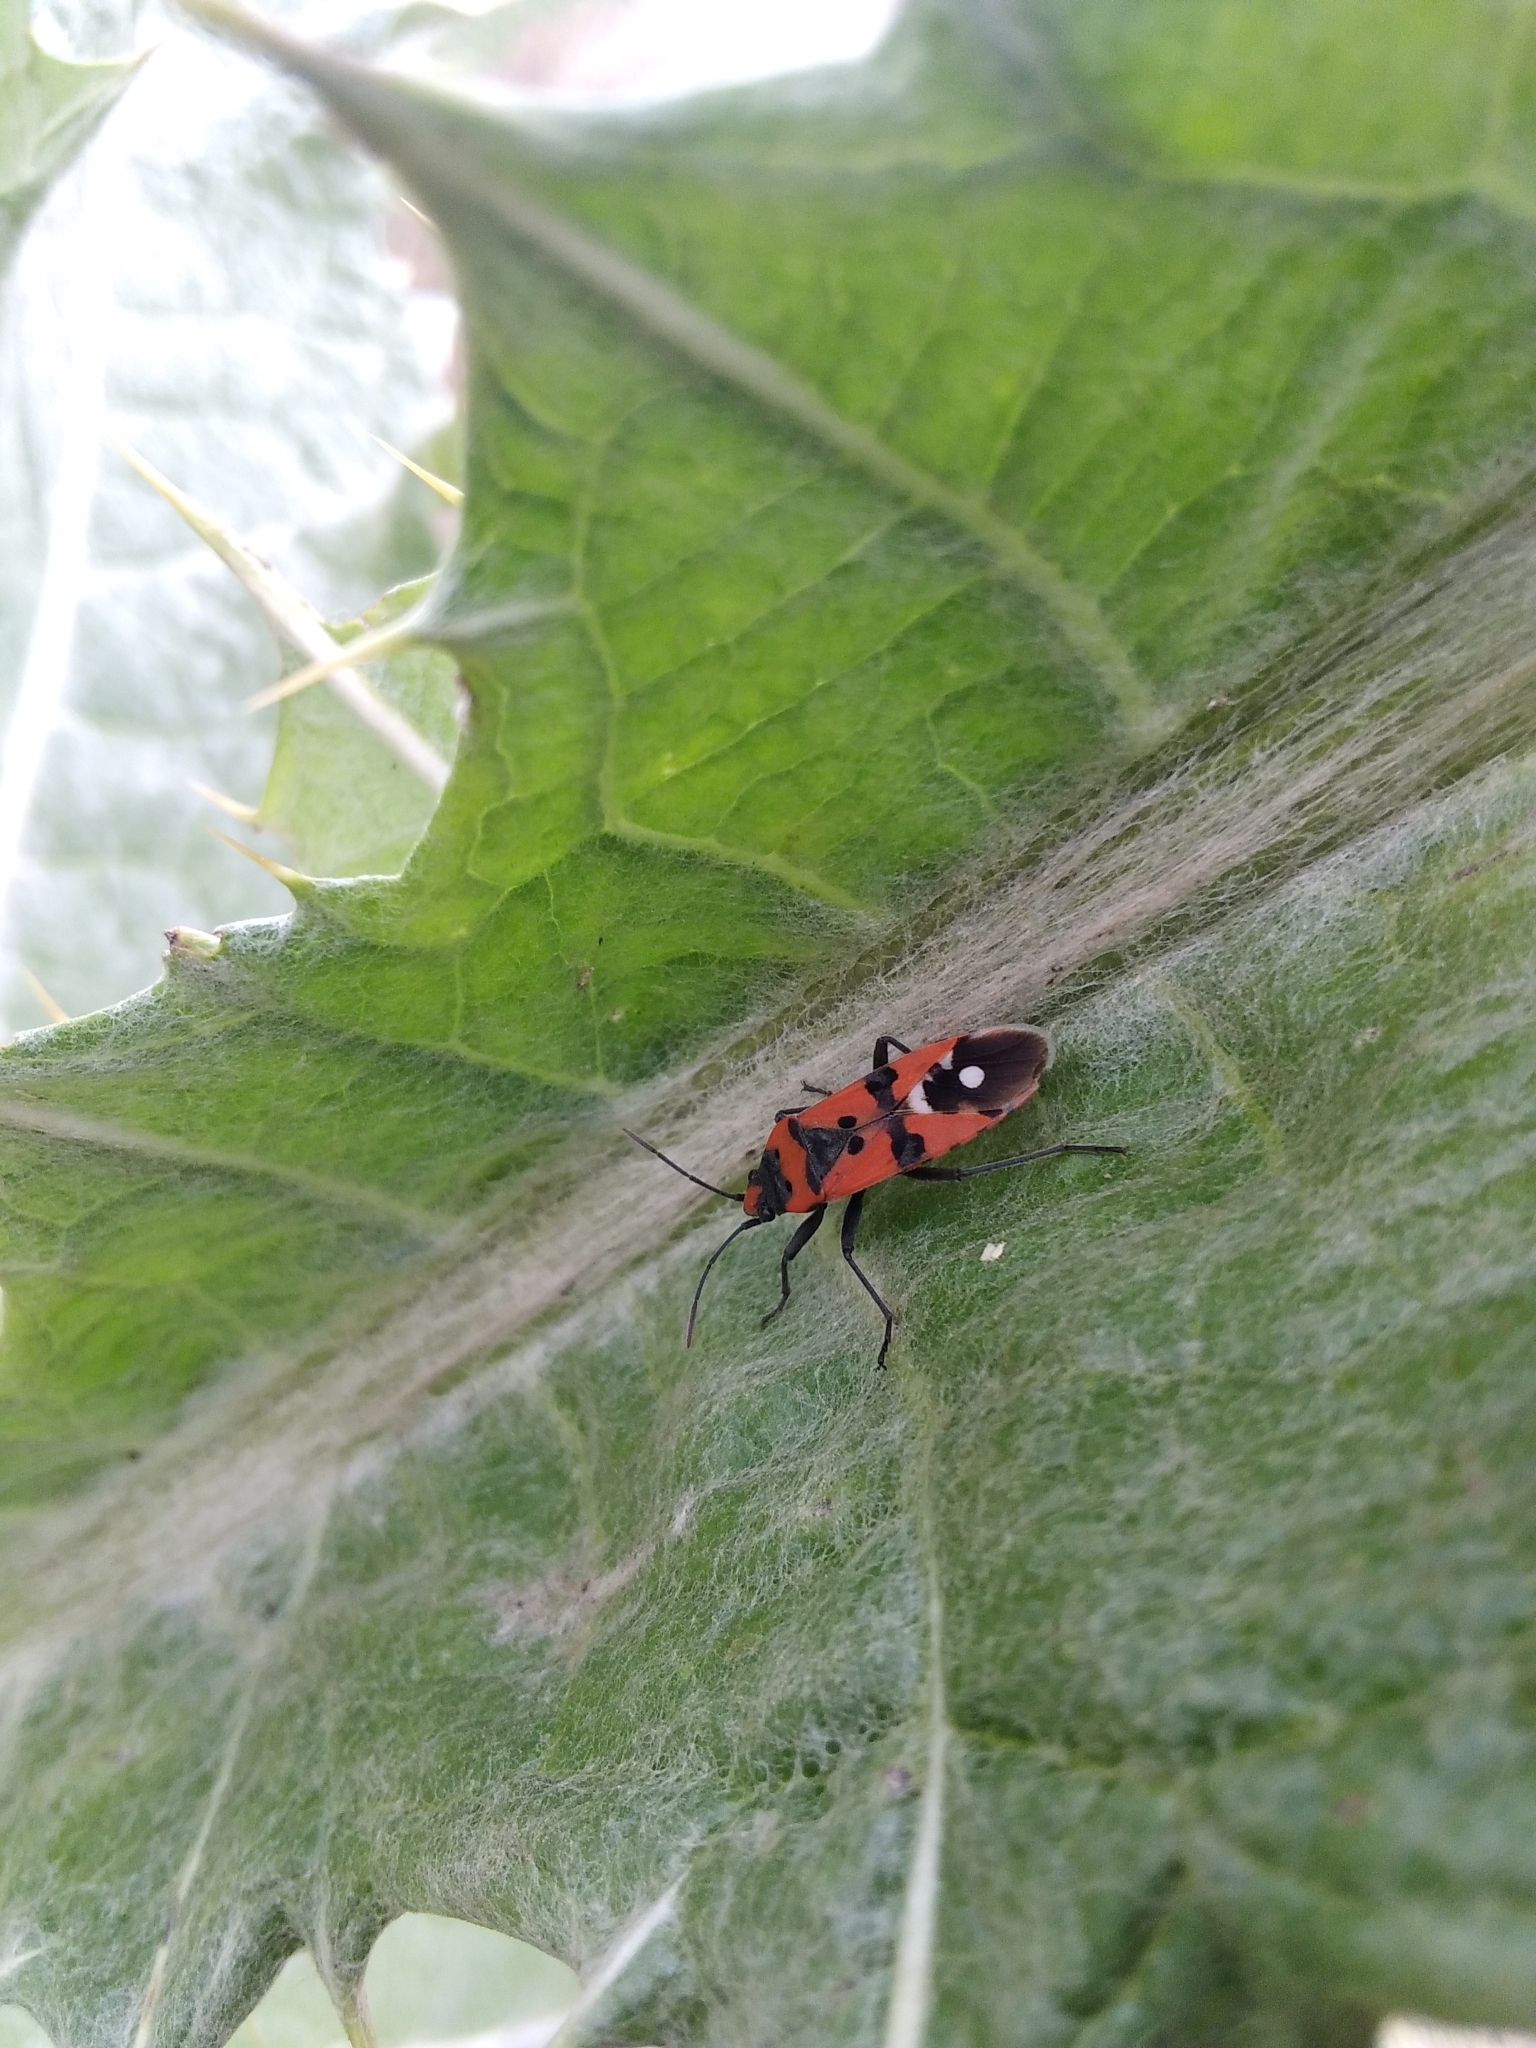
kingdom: Animalia
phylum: Arthropoda
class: Insecta
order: Hemiptera
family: Lygaeidae
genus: Lygaeus
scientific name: Lygaeus equestris
